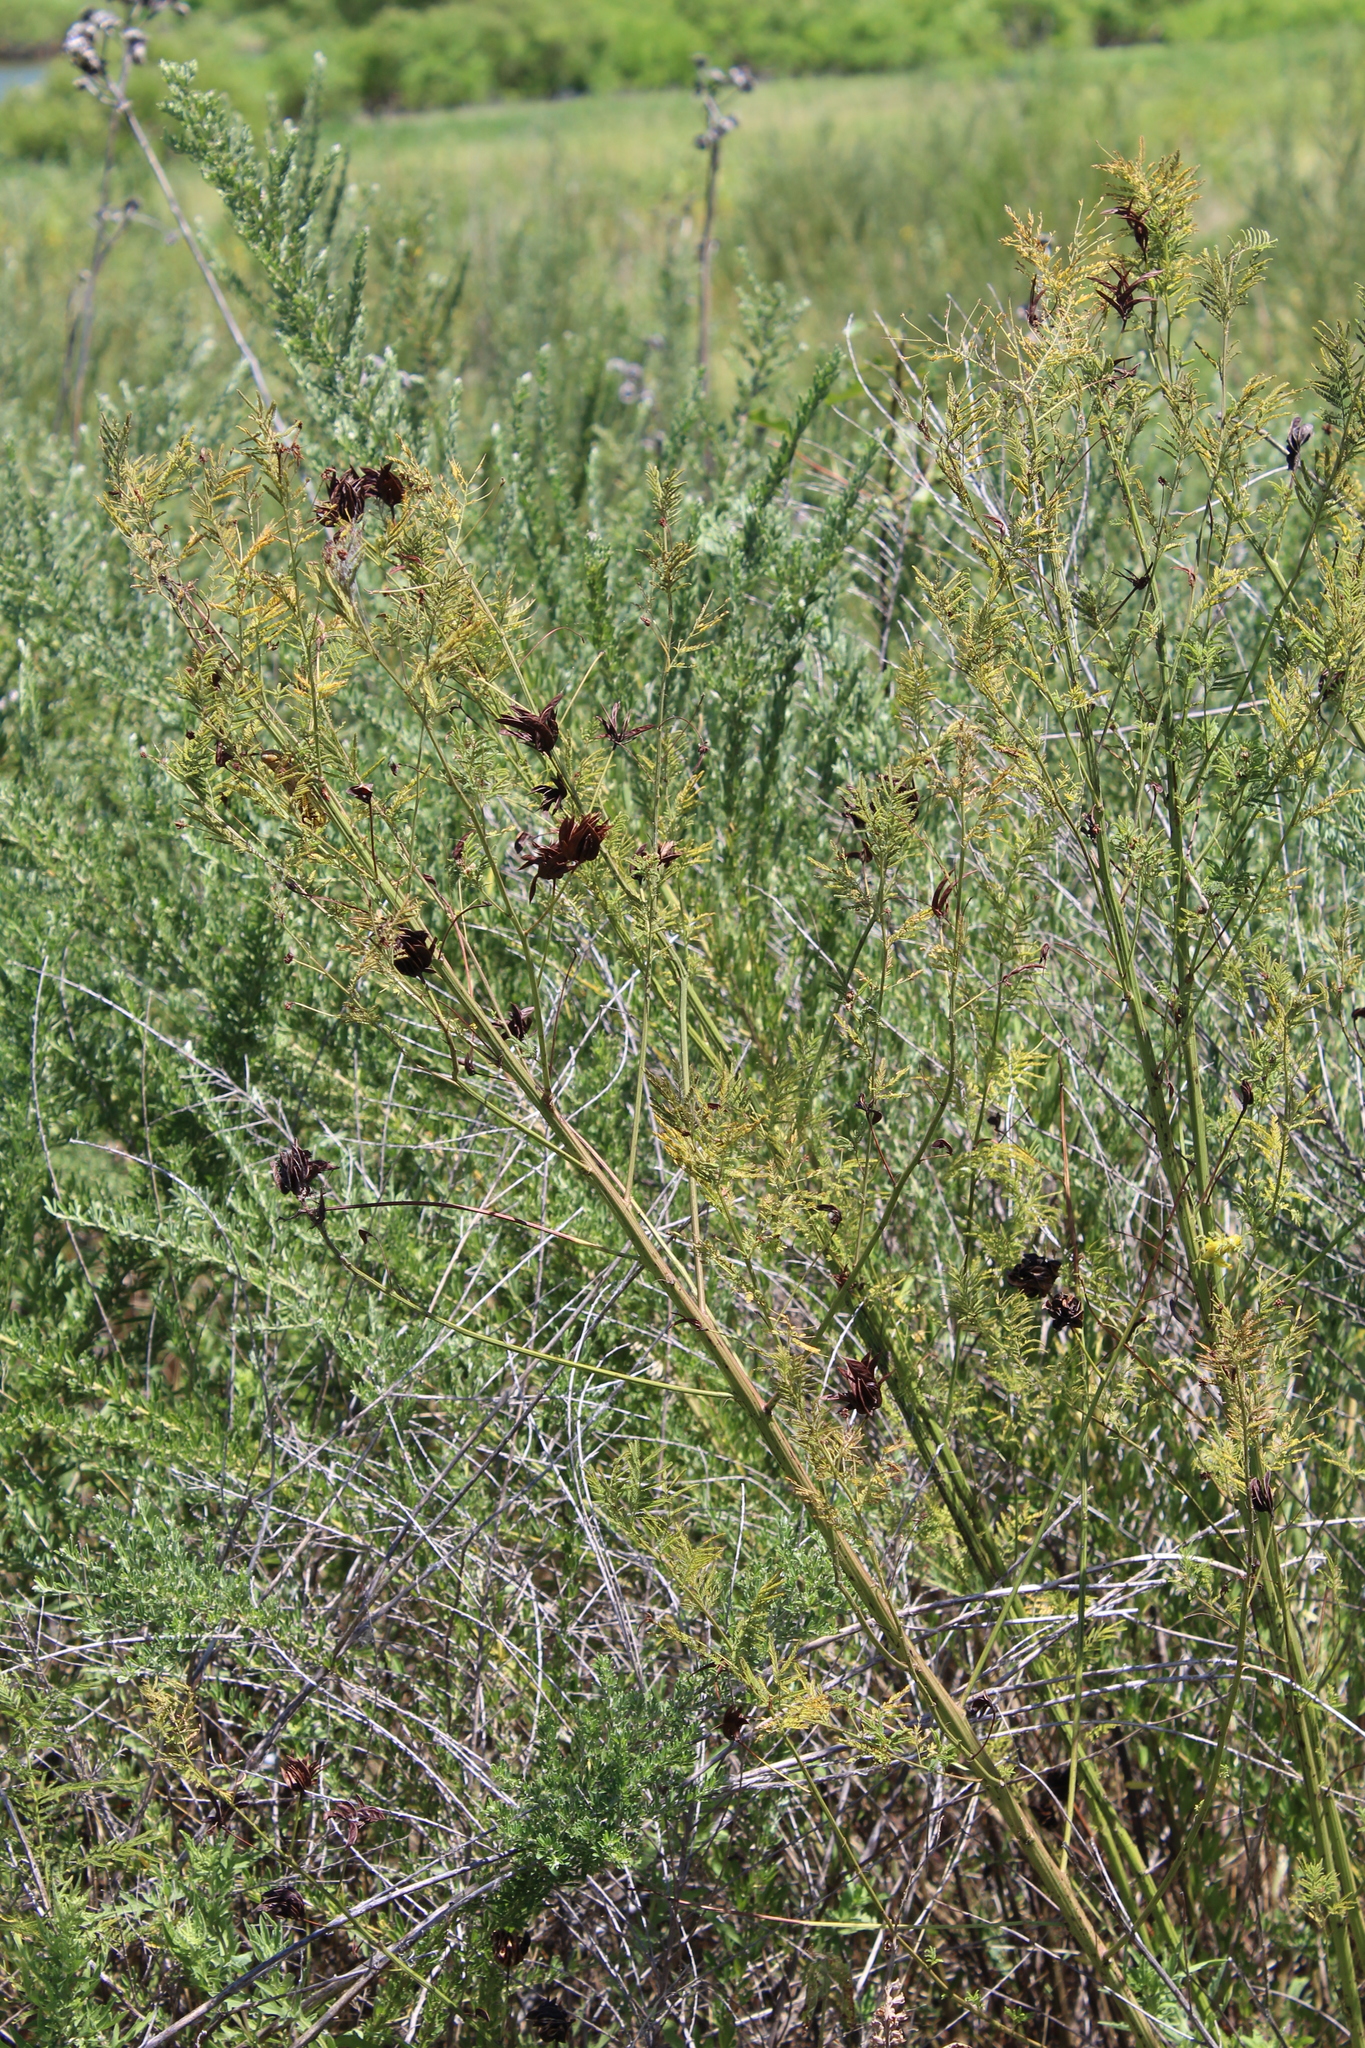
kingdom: Plantae
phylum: Tracheophyta
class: Magnoliopsida
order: Fabales
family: Fabaceae
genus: Desmanthus
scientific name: Desmanthus illinoensis
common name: Illinois bundle-flower
